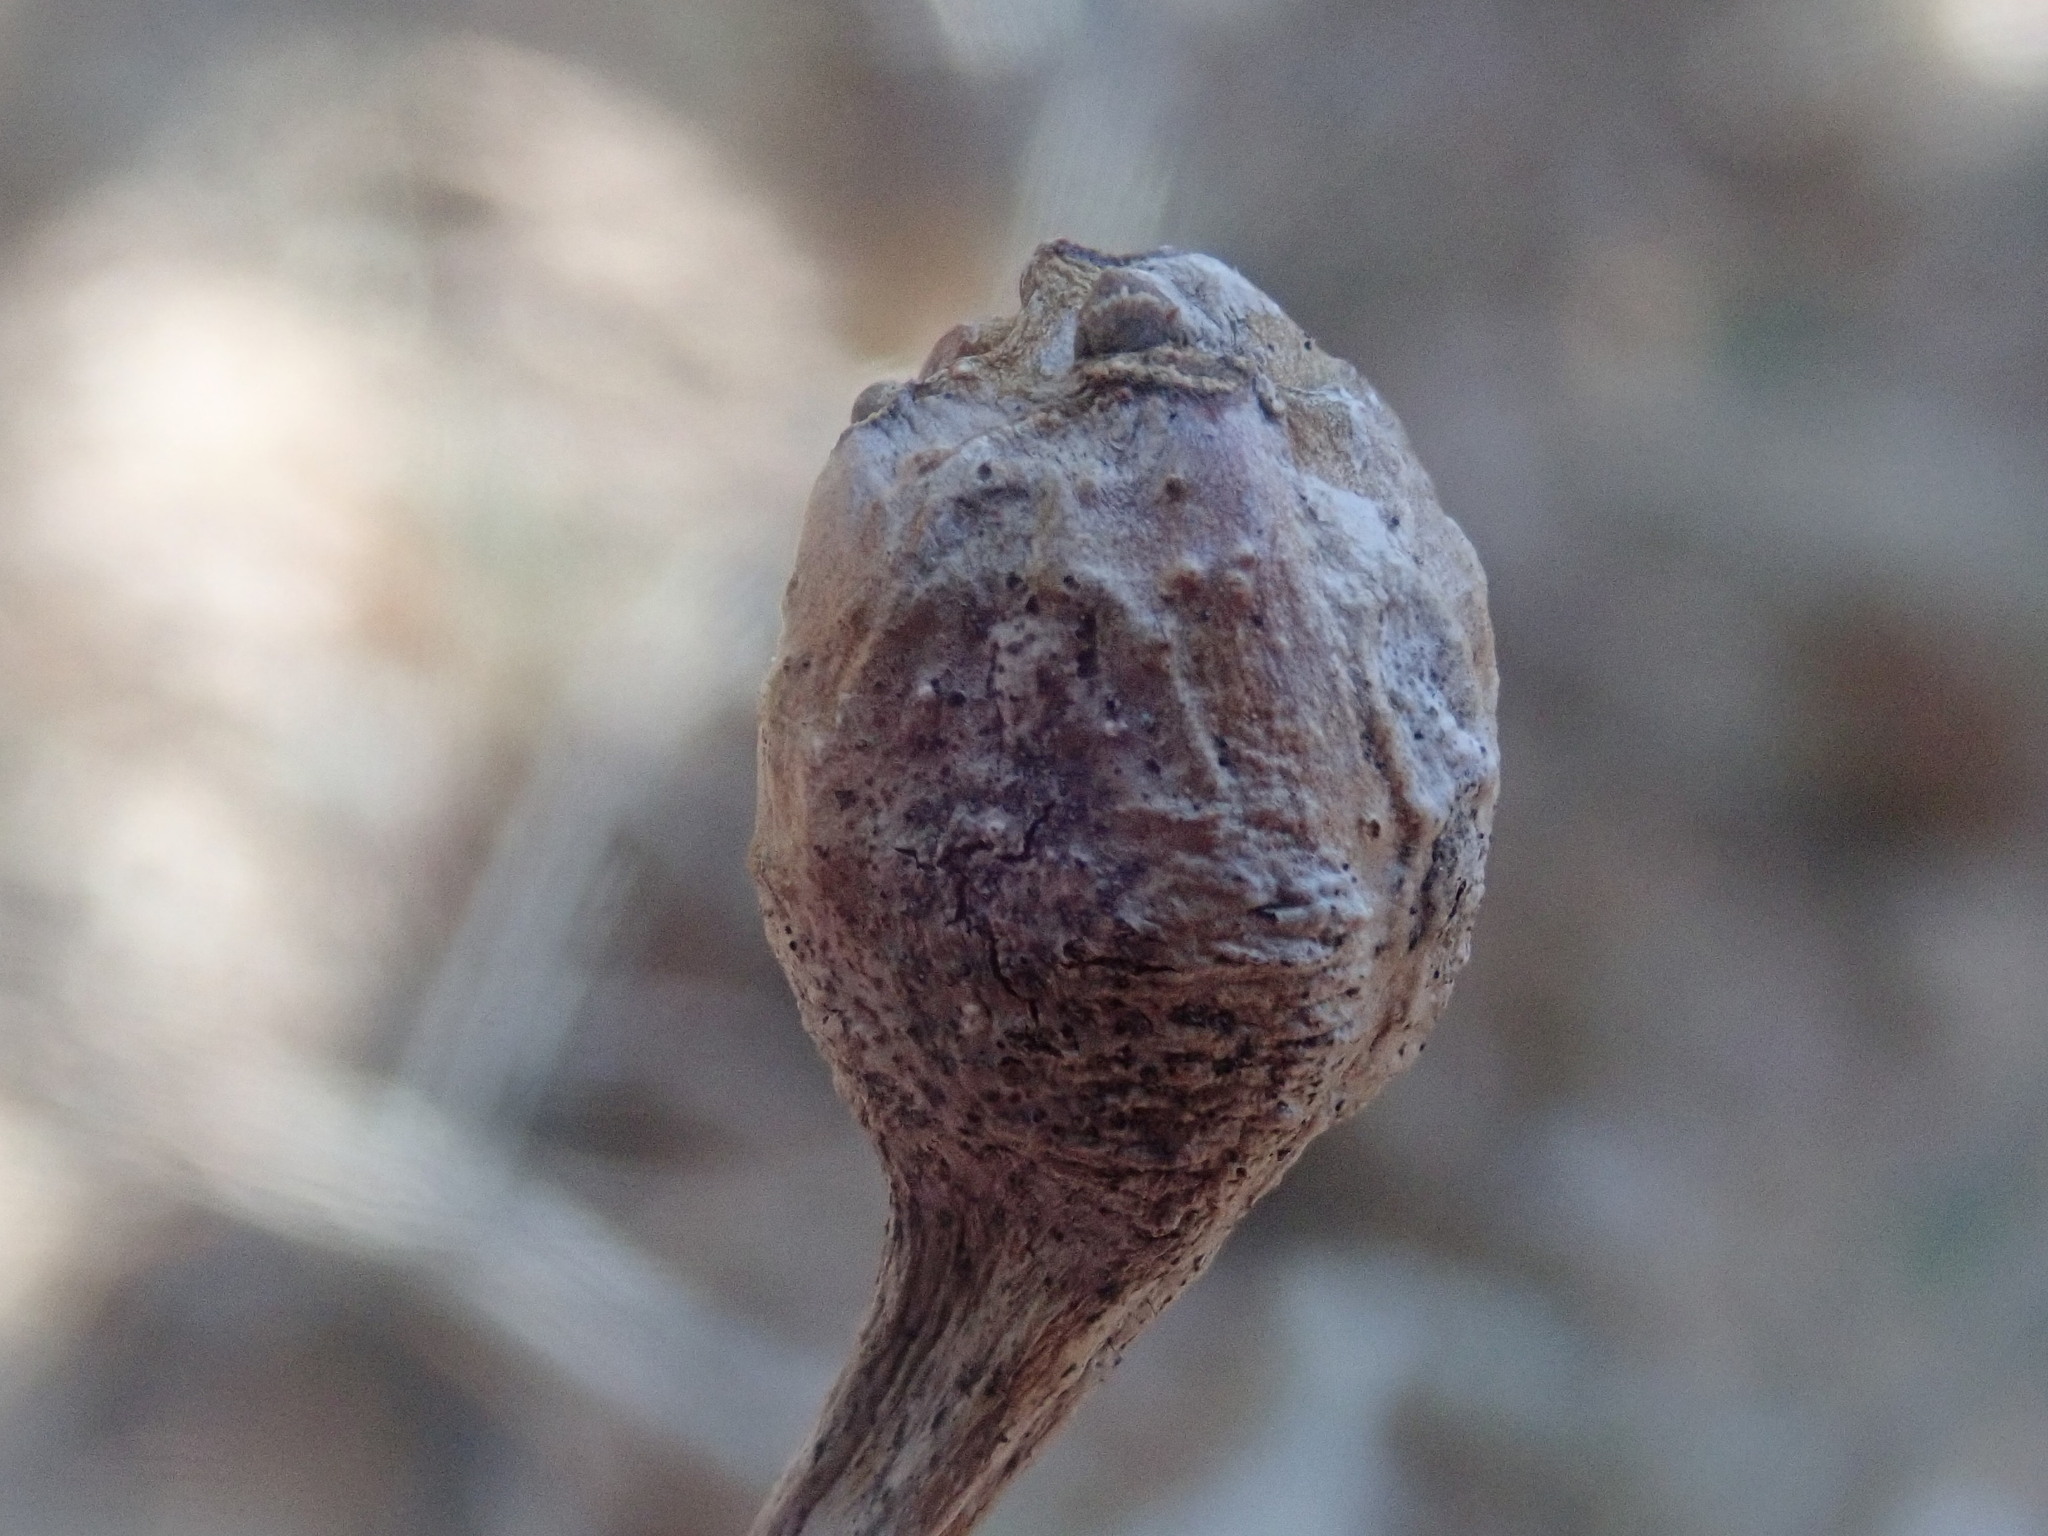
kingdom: Animalia
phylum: Arthropoda
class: Insecta
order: Hymenoptera
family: Cynipidae
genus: Callirhytis
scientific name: Callirhytis clavula
